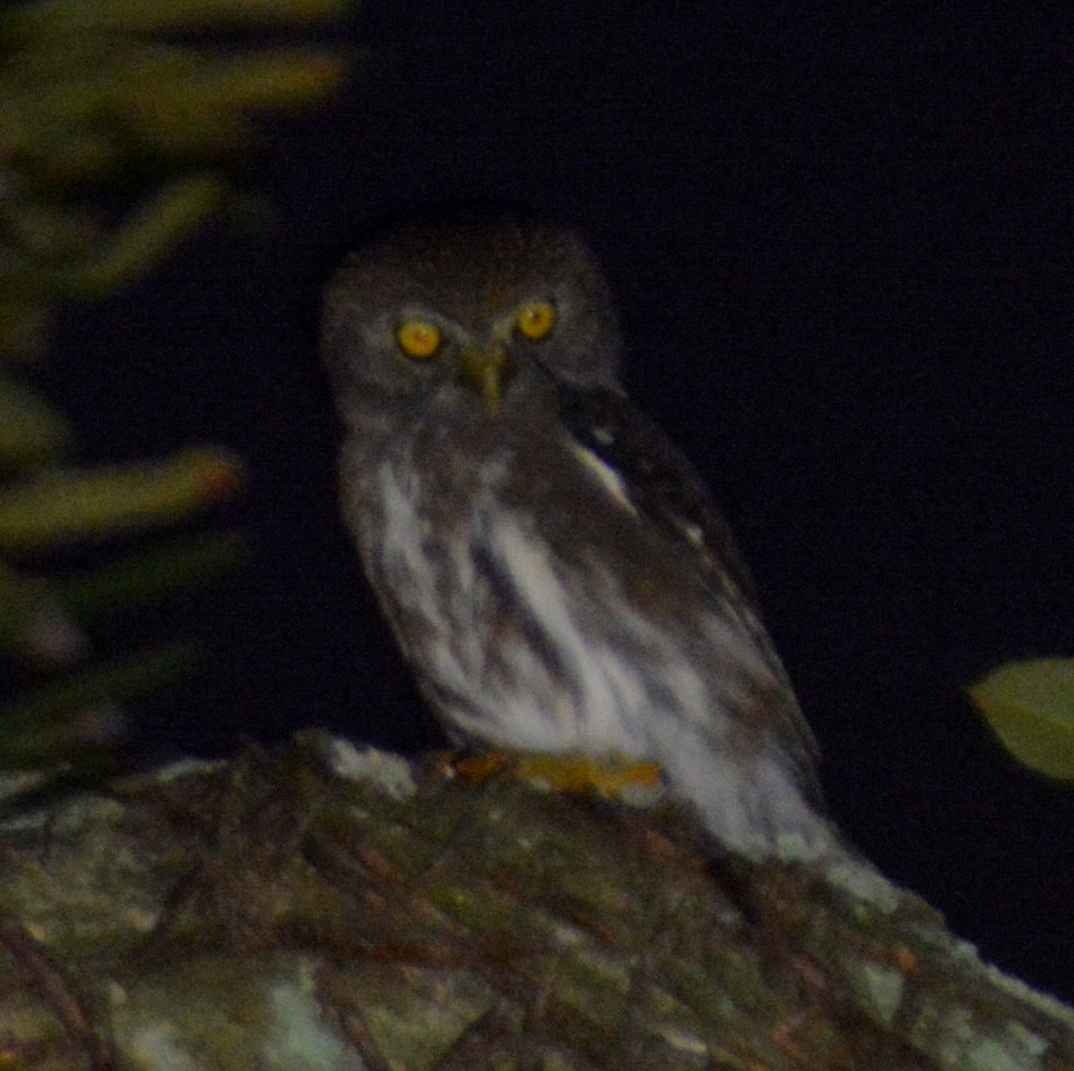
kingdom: Animalia
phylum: Chordata
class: Aves
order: Strigiformes
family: Strigidae
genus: Glaucidium
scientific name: Glaucidium brasilianum
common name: Ferruginous pygmy-owl
